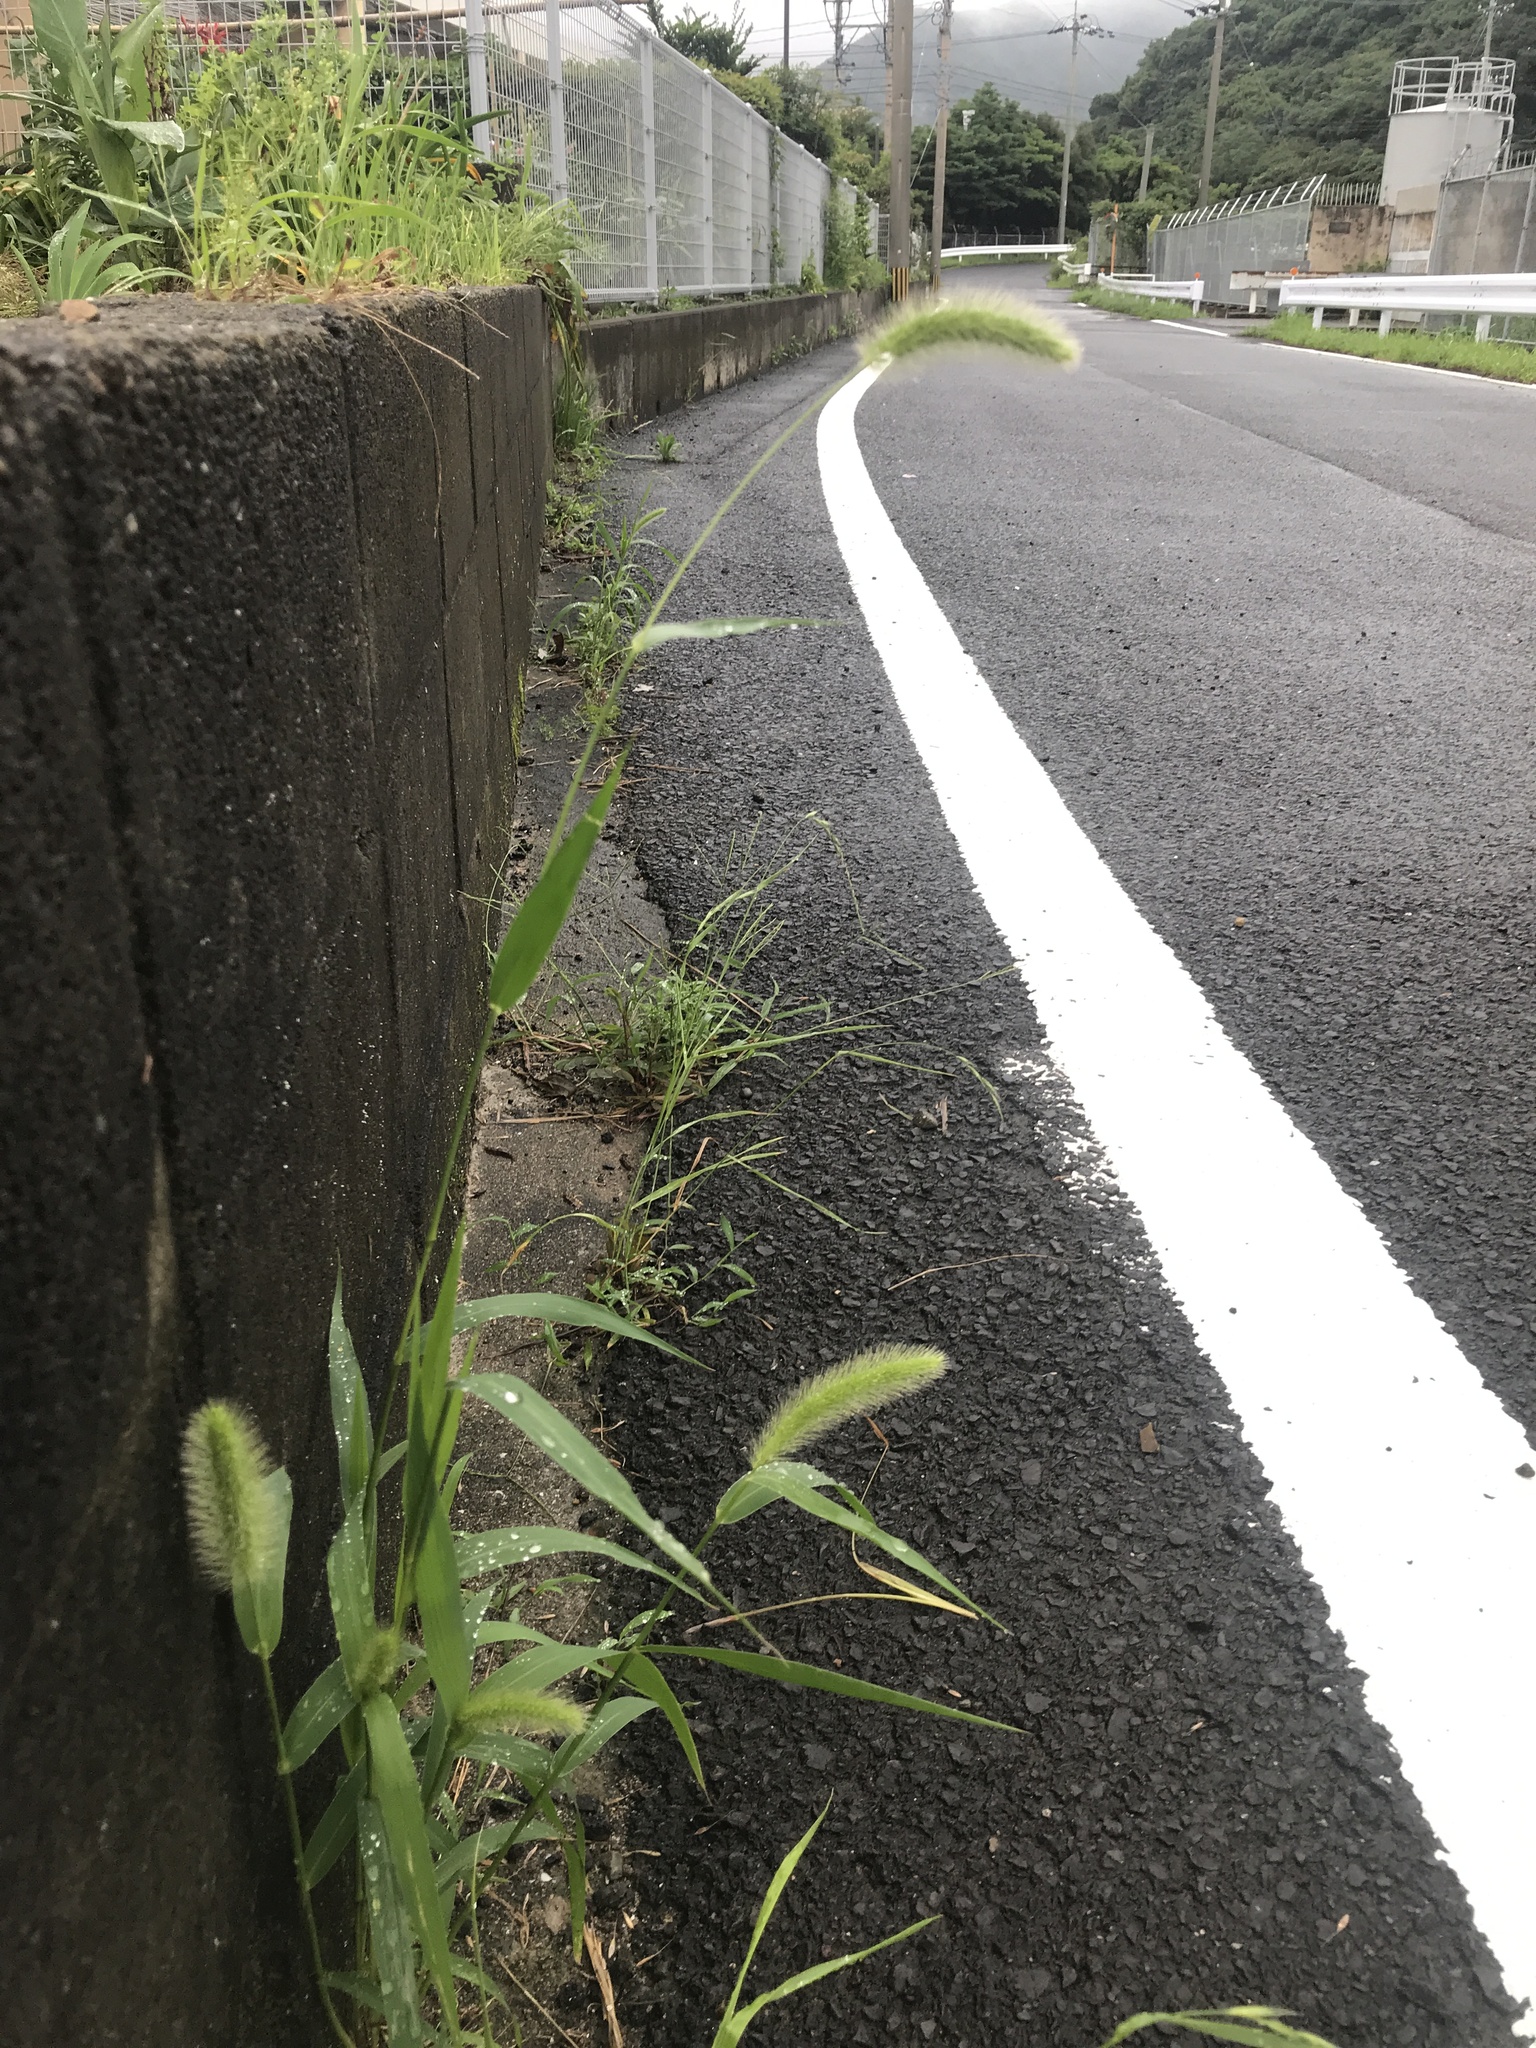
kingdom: Plantae
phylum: Tracheophyta
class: Liliopsida
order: Poales
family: Poaceae
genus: Setaria
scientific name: Setaria viridis
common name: Green bristlegrass
